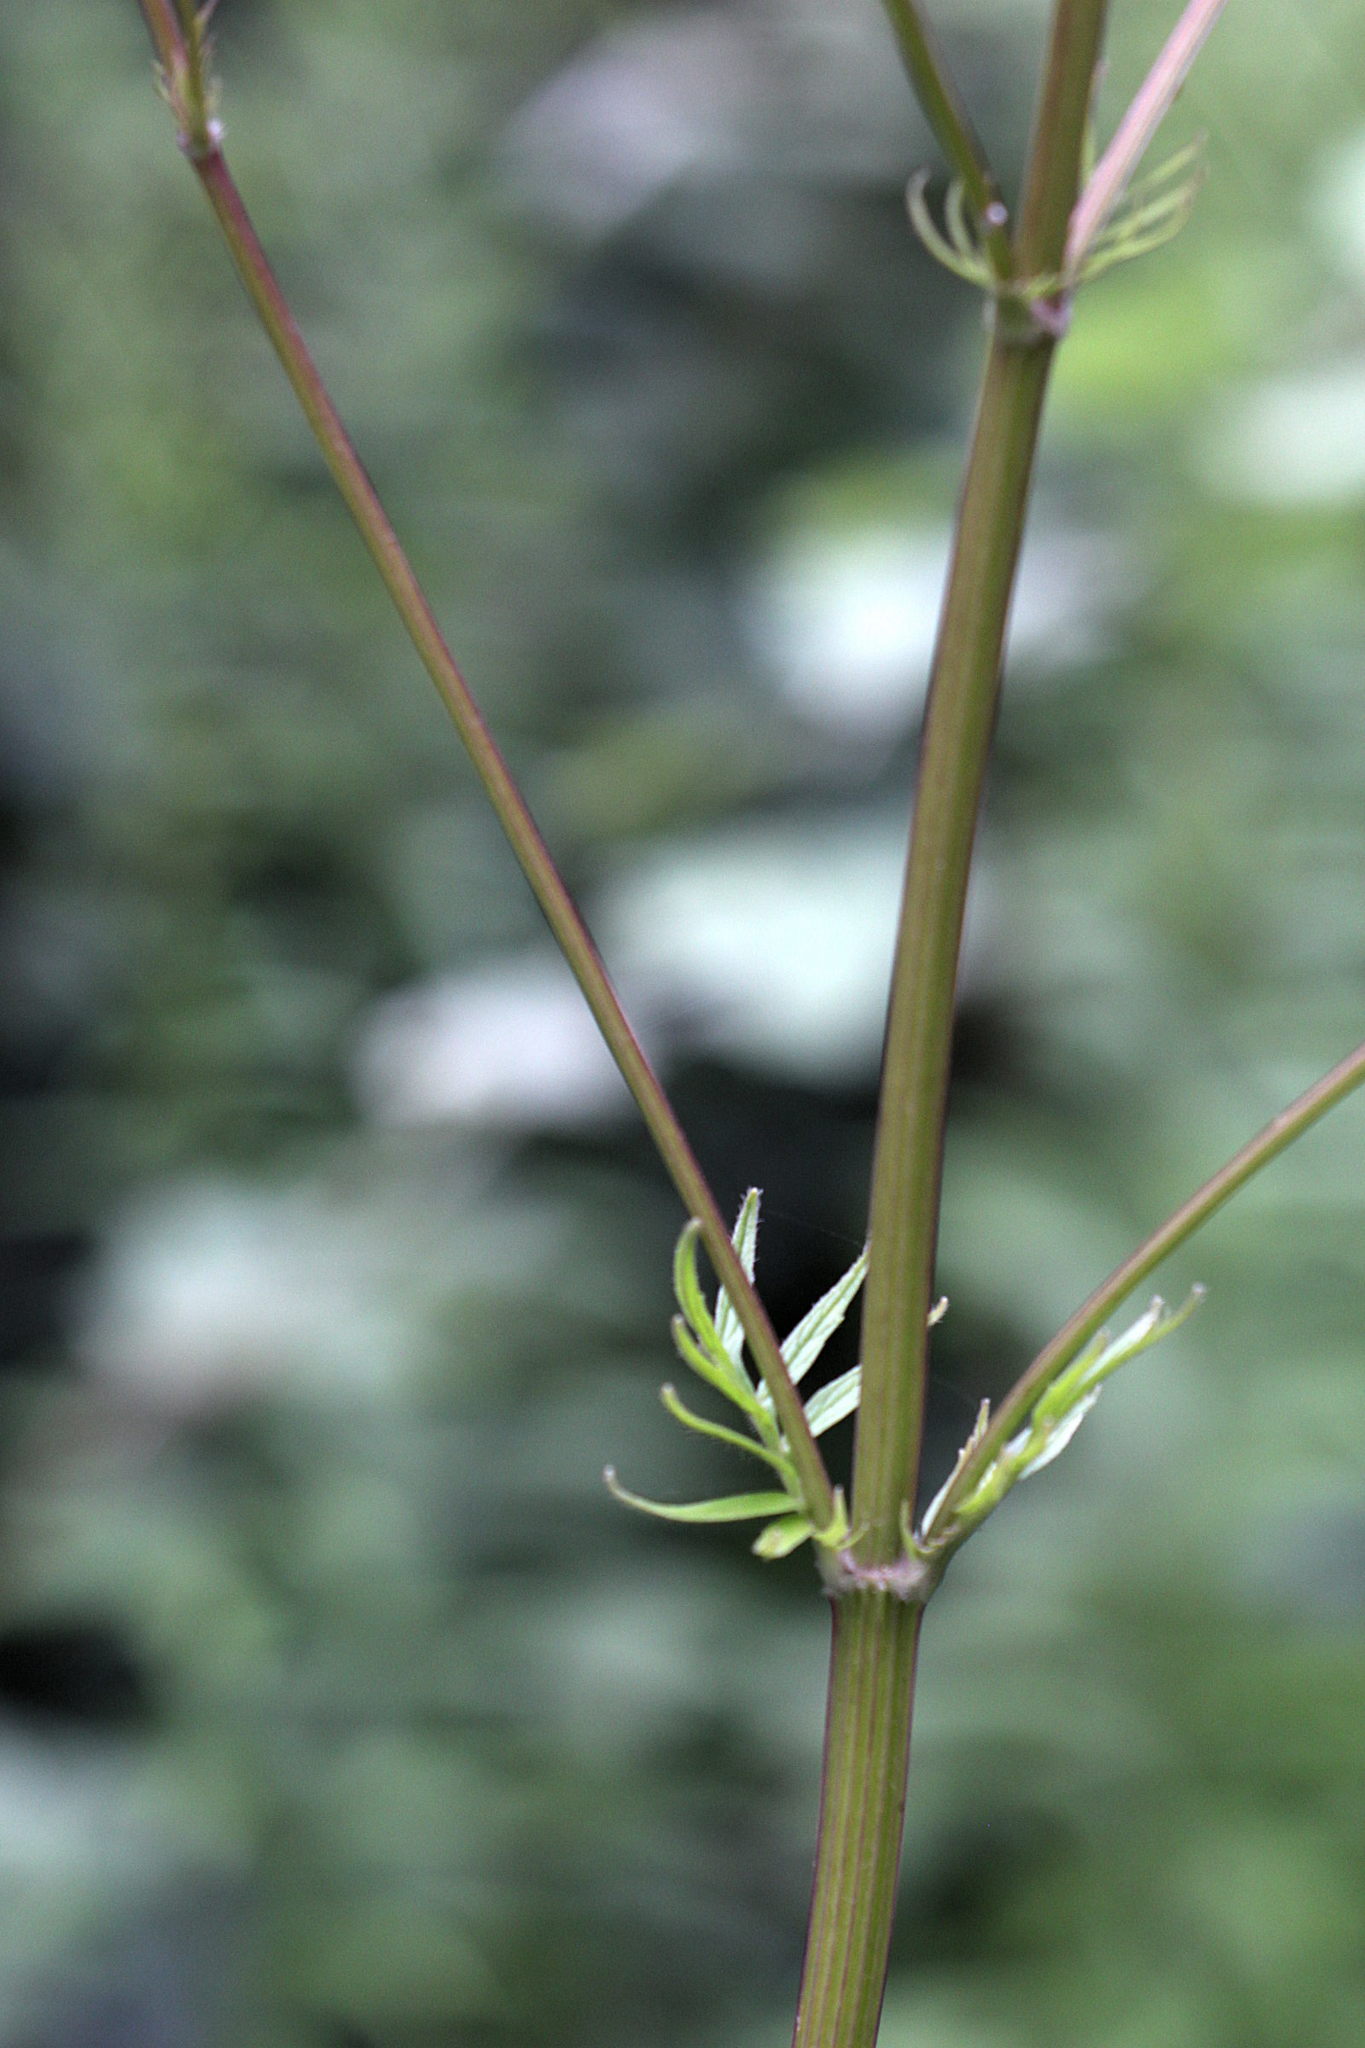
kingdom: Plantae
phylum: Tracheophyta
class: Magnoliopsida
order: Dipsacales
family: Caprifoliaceae
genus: Valeriana
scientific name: Valeriana officinalis
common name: Common valerian
